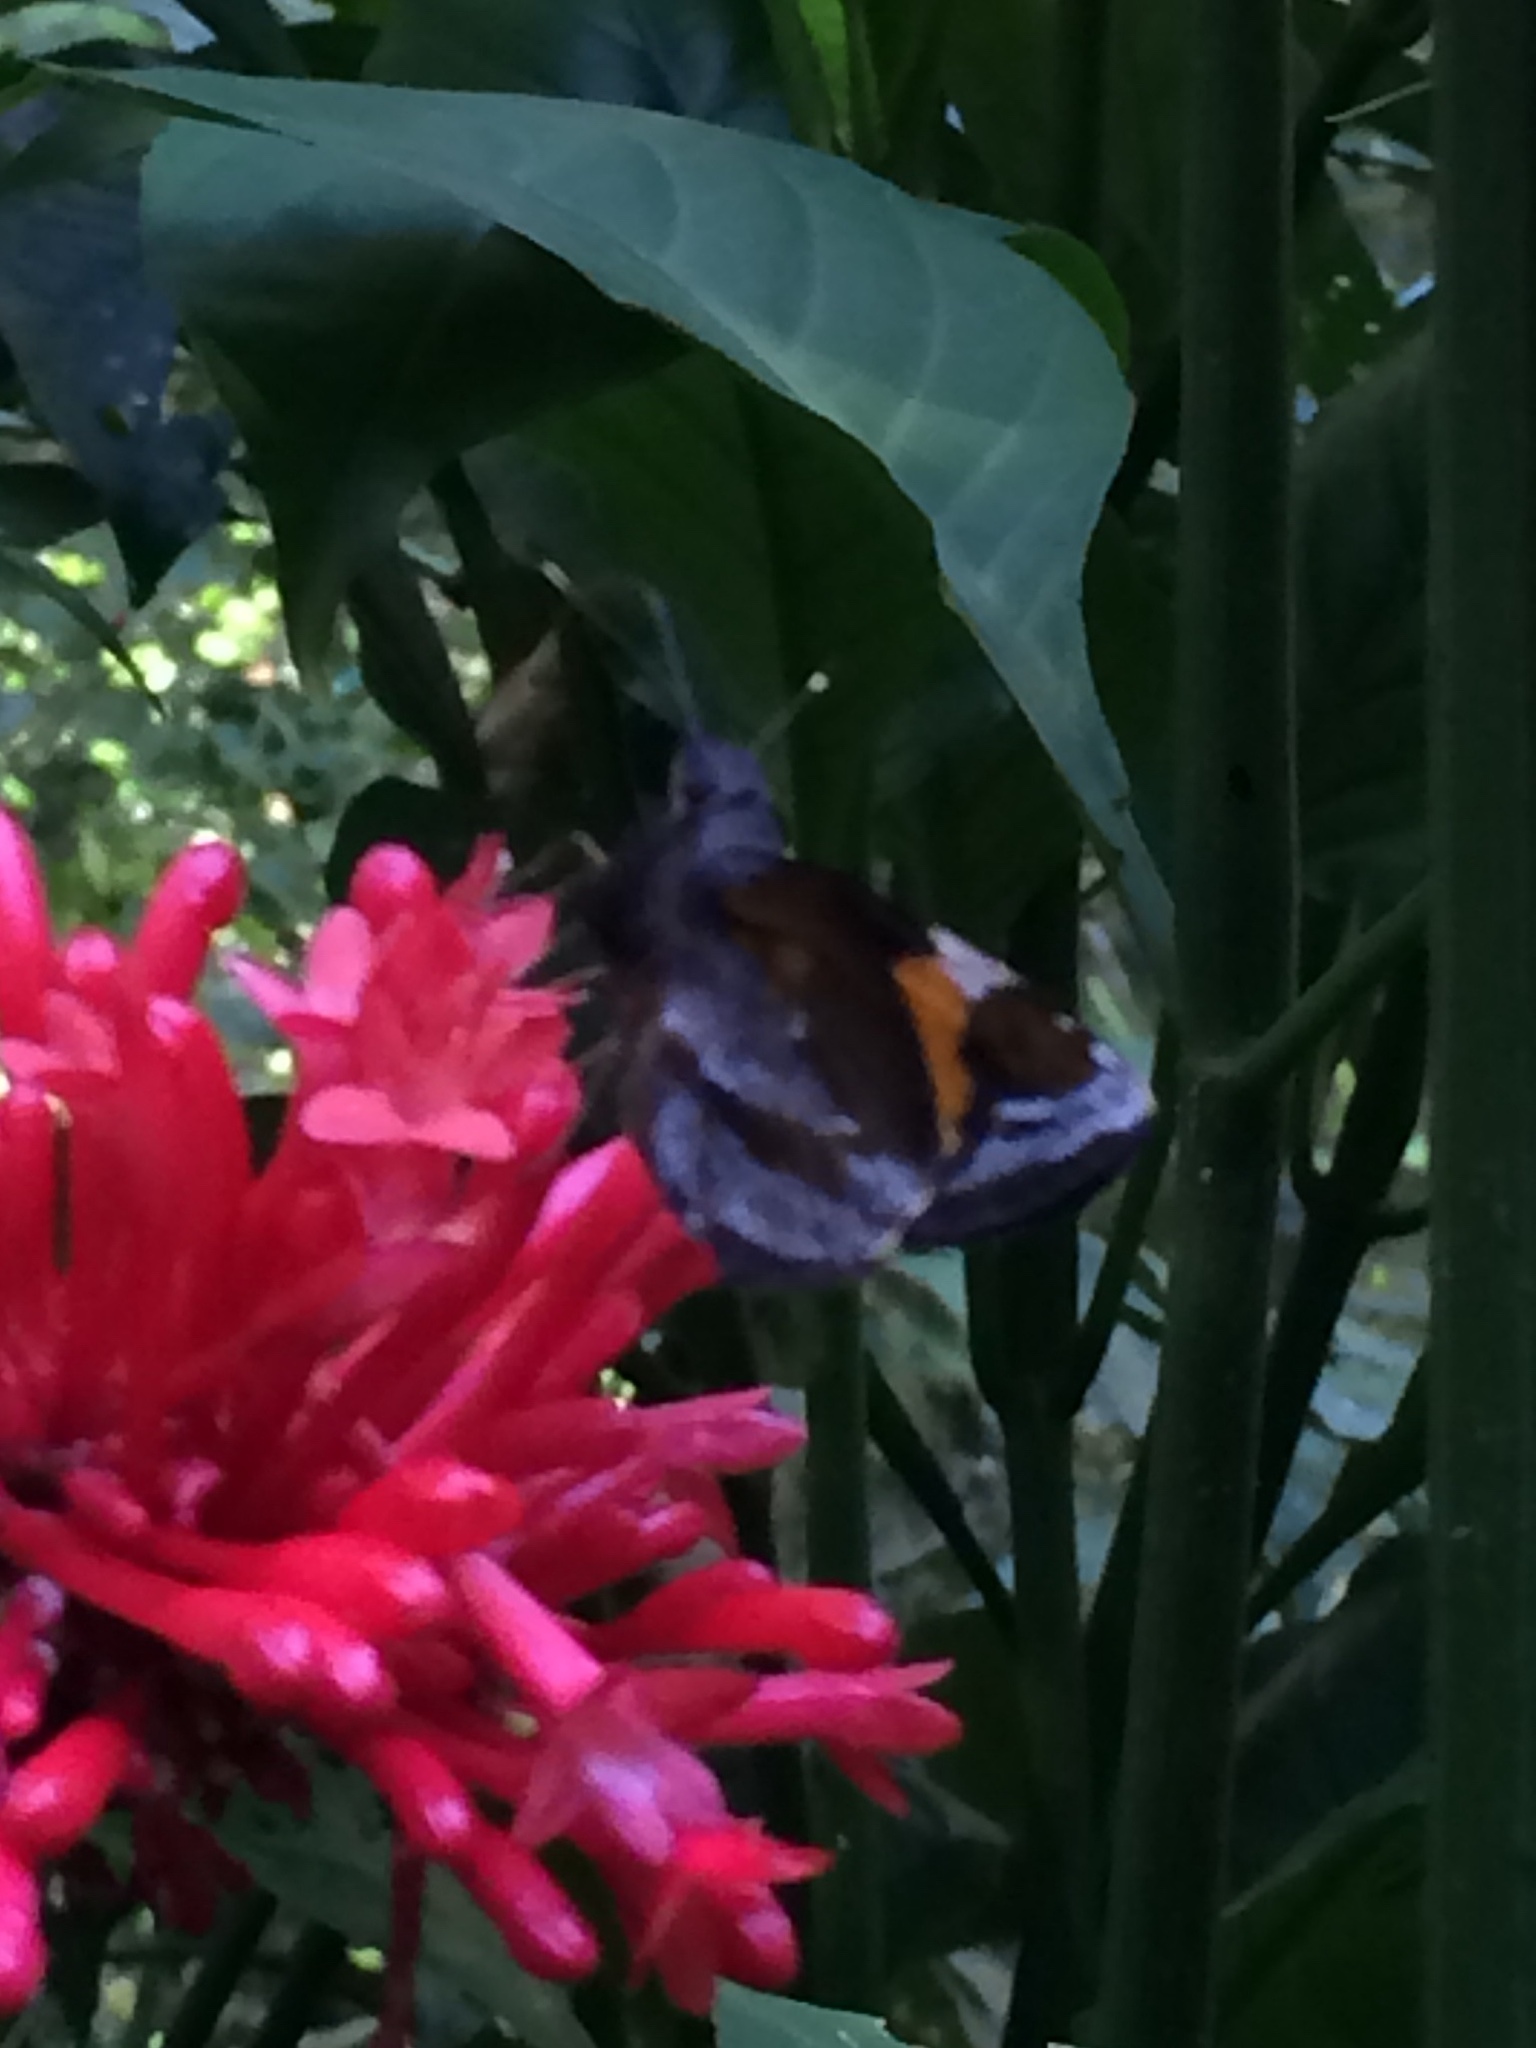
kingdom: Animalia
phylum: Arthropoda
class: Insecta
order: Lepidoptera
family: Hesperiidae
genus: Lychnuchoides
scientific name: Lychnuchoides ozias
